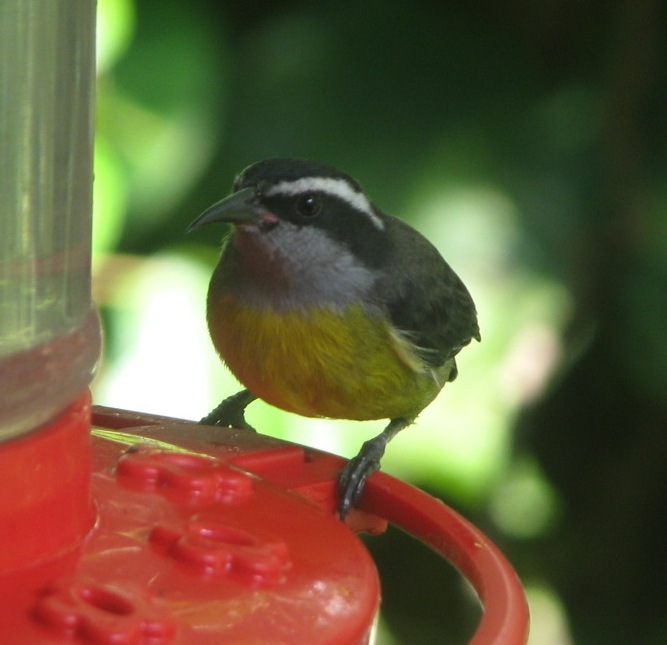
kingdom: Animalia
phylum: Chordata
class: Aves
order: Passeriformes
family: Thraupidae
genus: Coereba
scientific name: Coereba flaveola
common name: Bananaquit
